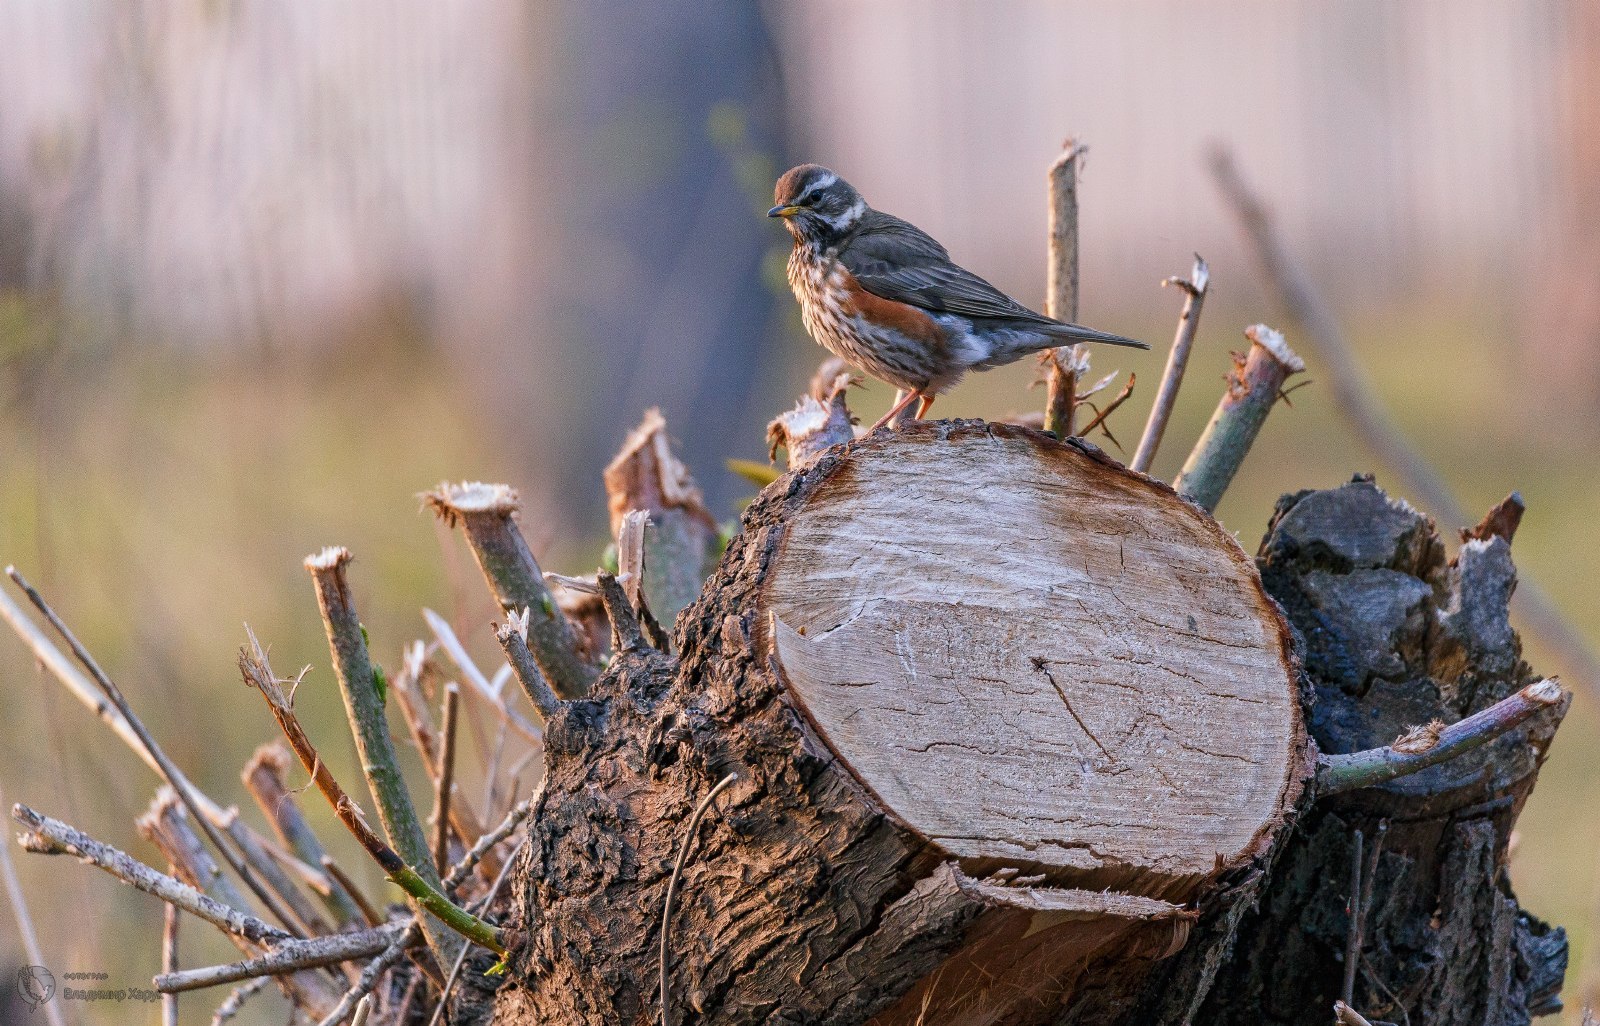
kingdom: Animalia
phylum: Chordata
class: Aves
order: Passeriformes
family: Turdidae
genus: Turdus
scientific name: Turdus iliacus
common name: Redwing
